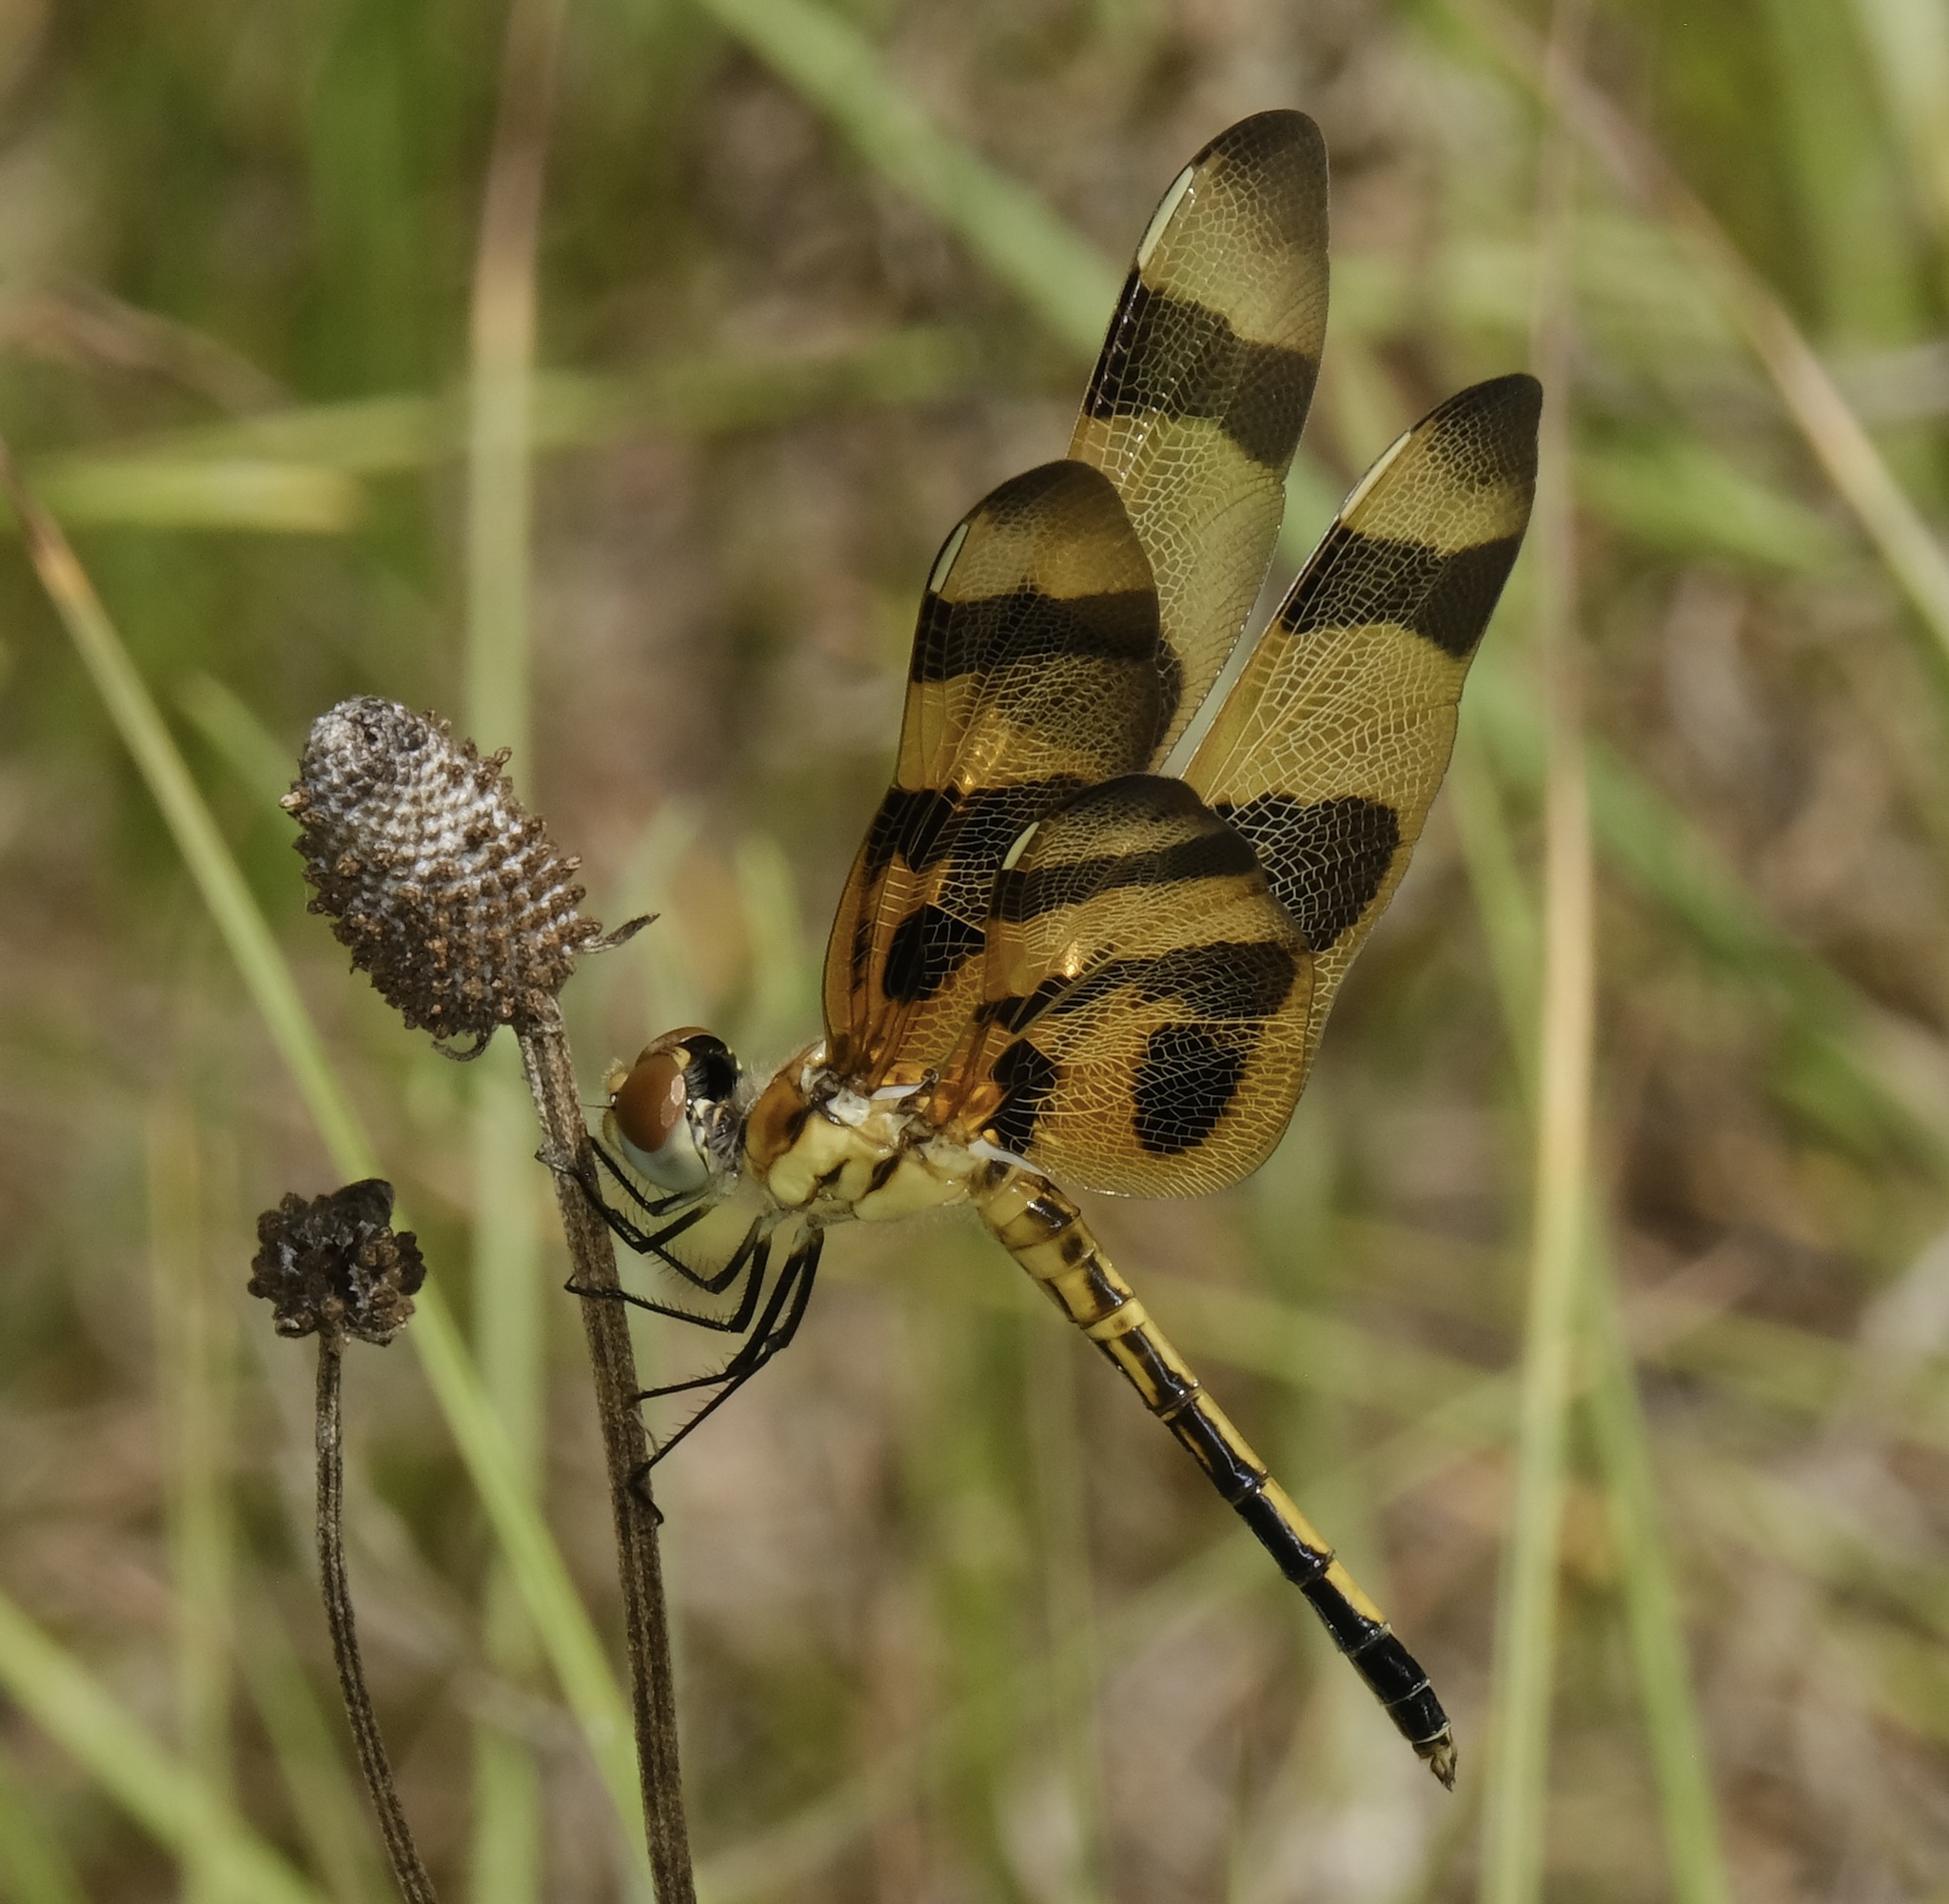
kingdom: Animalia
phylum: Arthropoda
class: Insecta
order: Odonata
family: Libellulidae
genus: Celithemis
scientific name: Celithemis eponina
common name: Halloween pennant
